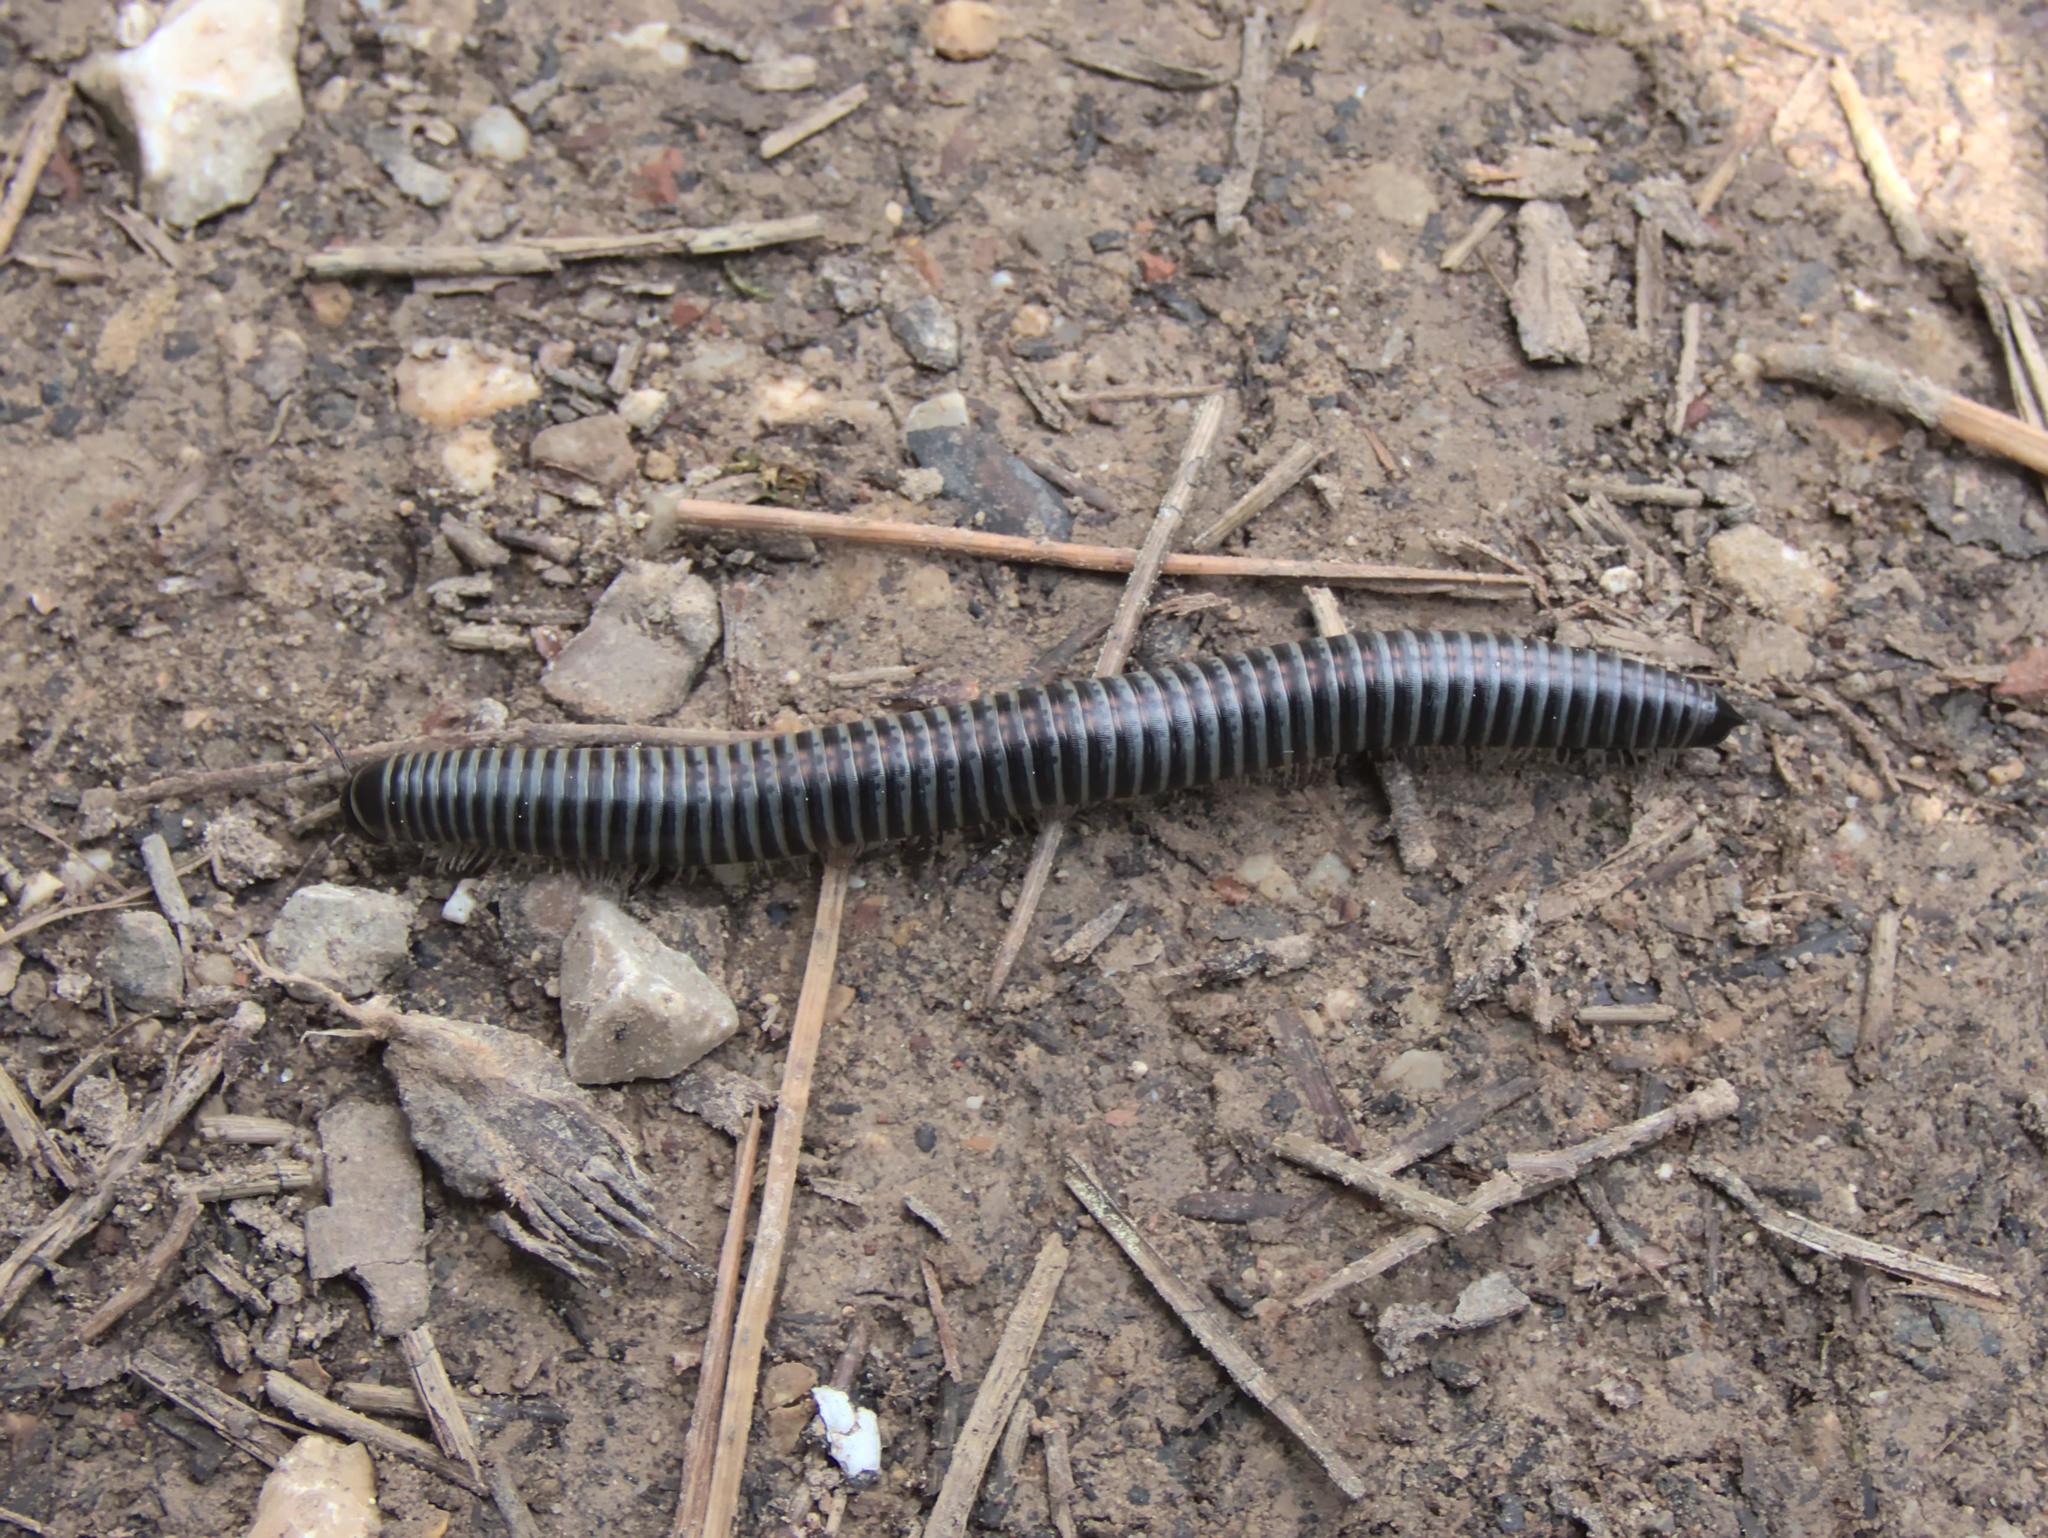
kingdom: Animalia
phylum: Arthropoda
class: Diplopoda
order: Julida
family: Julidae
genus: Ommatoiulus
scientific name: Ommatoiulus sabulosus
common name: Striped millipede
